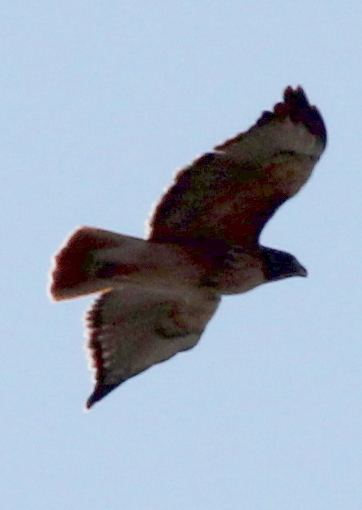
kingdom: Animalia
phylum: Chordata
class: Aves
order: Accipitriformes
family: Accipitridae
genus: Buteo
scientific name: Buteo jamaicensis
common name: Red-tailed hawk
